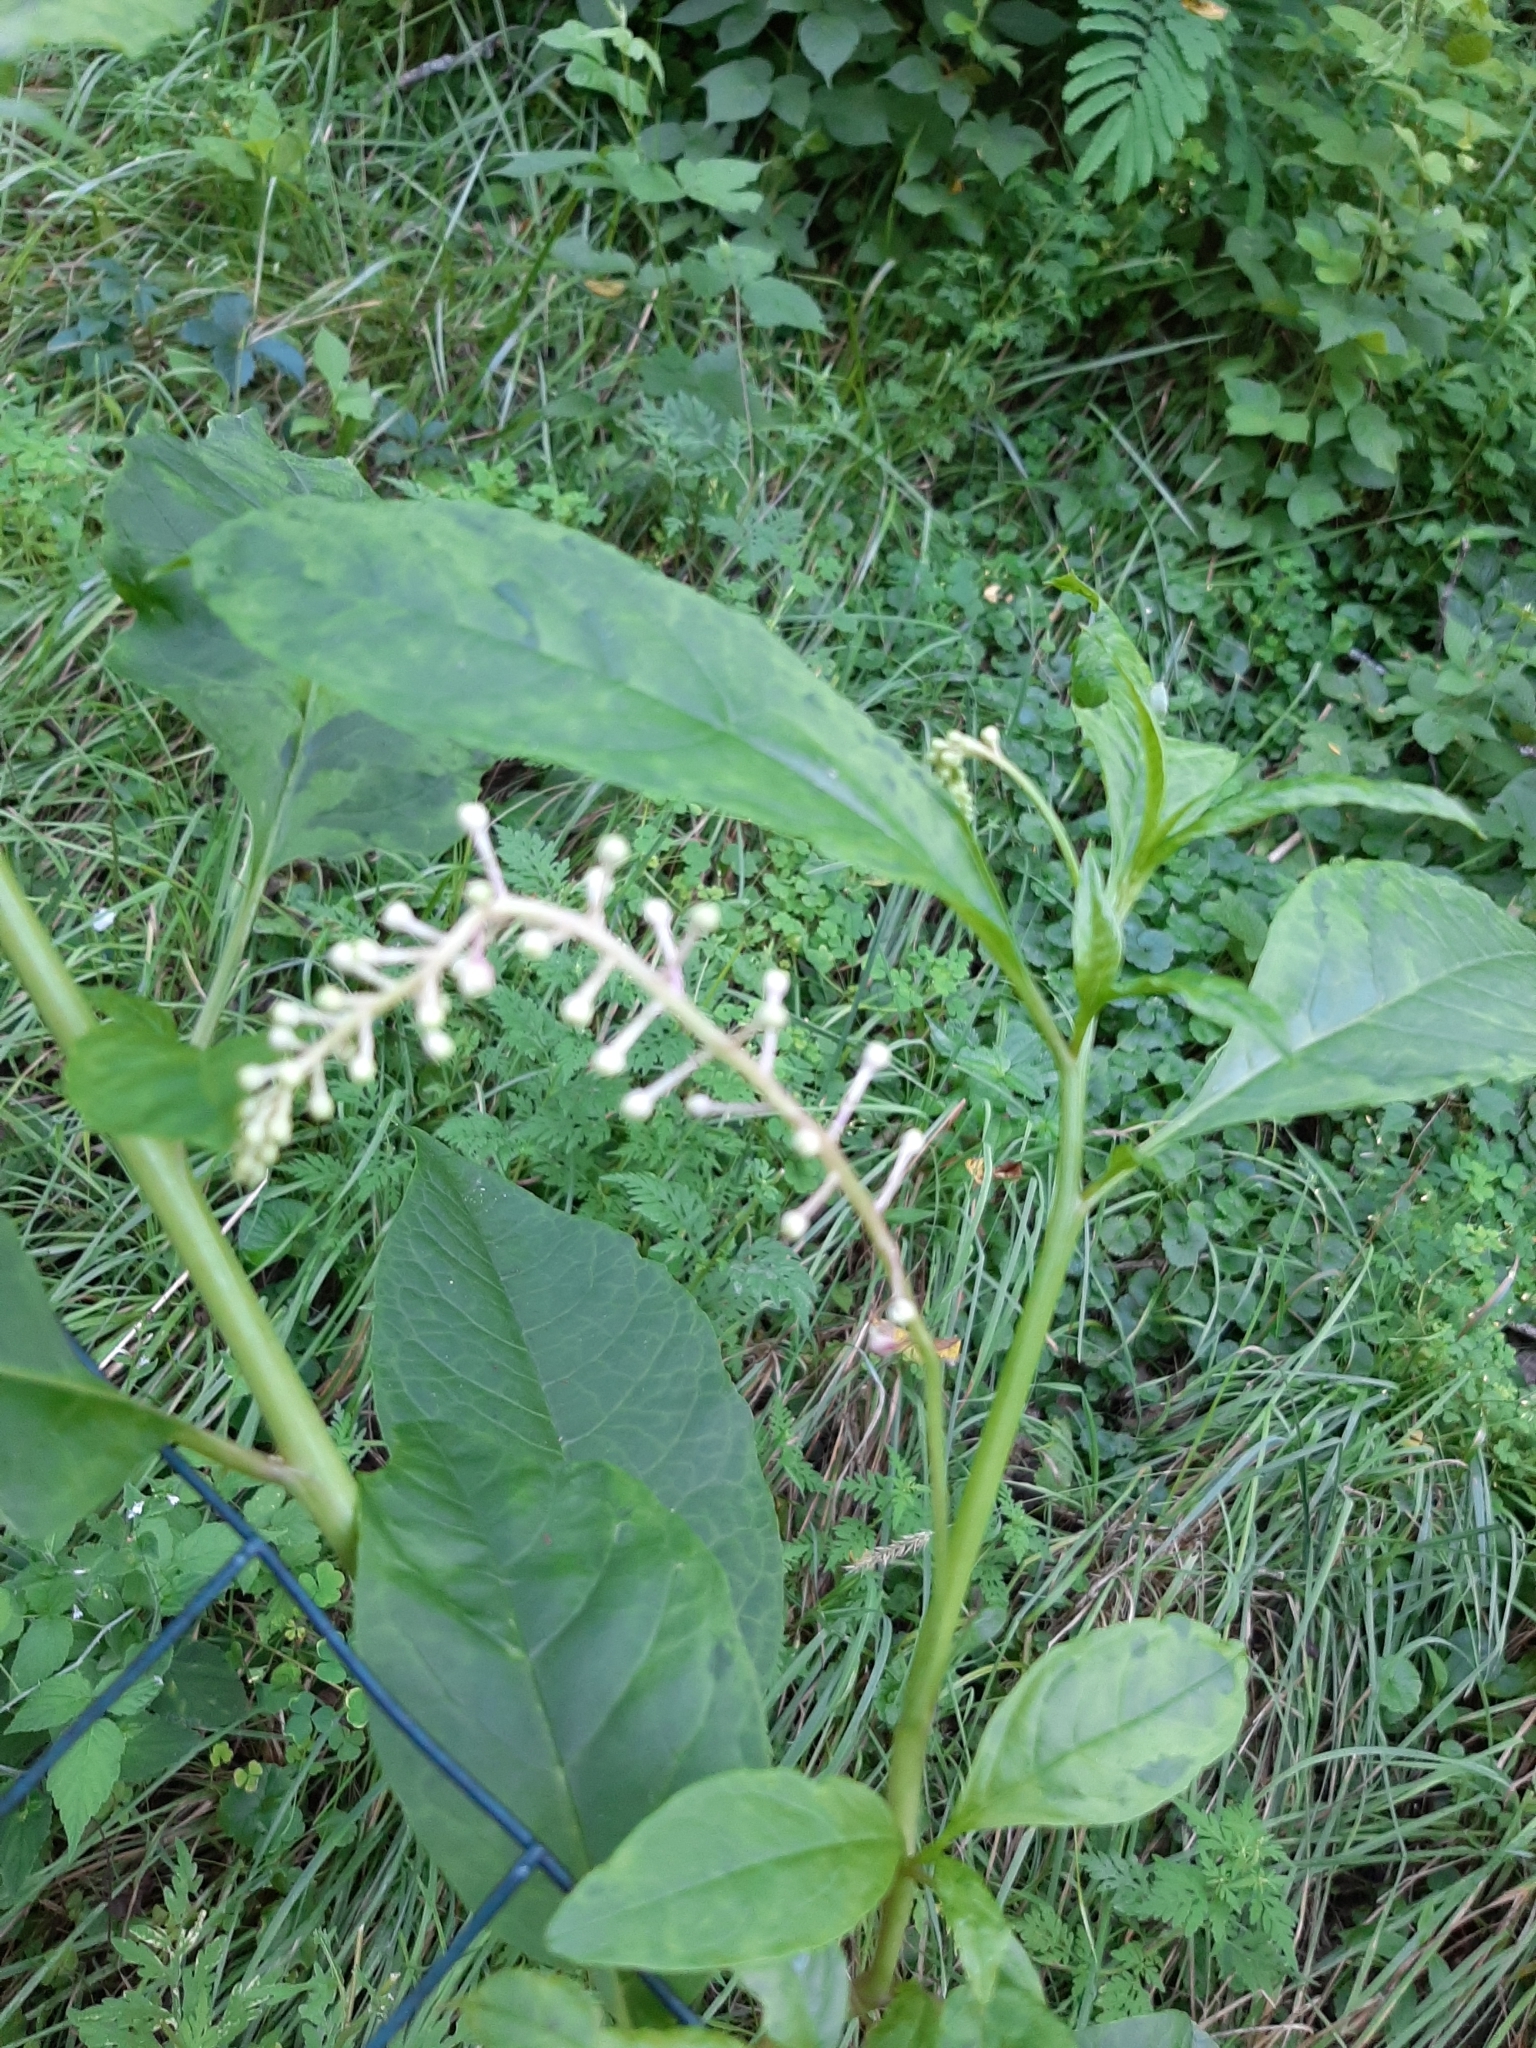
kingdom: Plantae
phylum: Tracheophyta
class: Magnoliopsida
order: Caryophyllales
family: Phytolaccaceae
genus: Phytolacca
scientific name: Phytolacca americana
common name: American pokeweed
